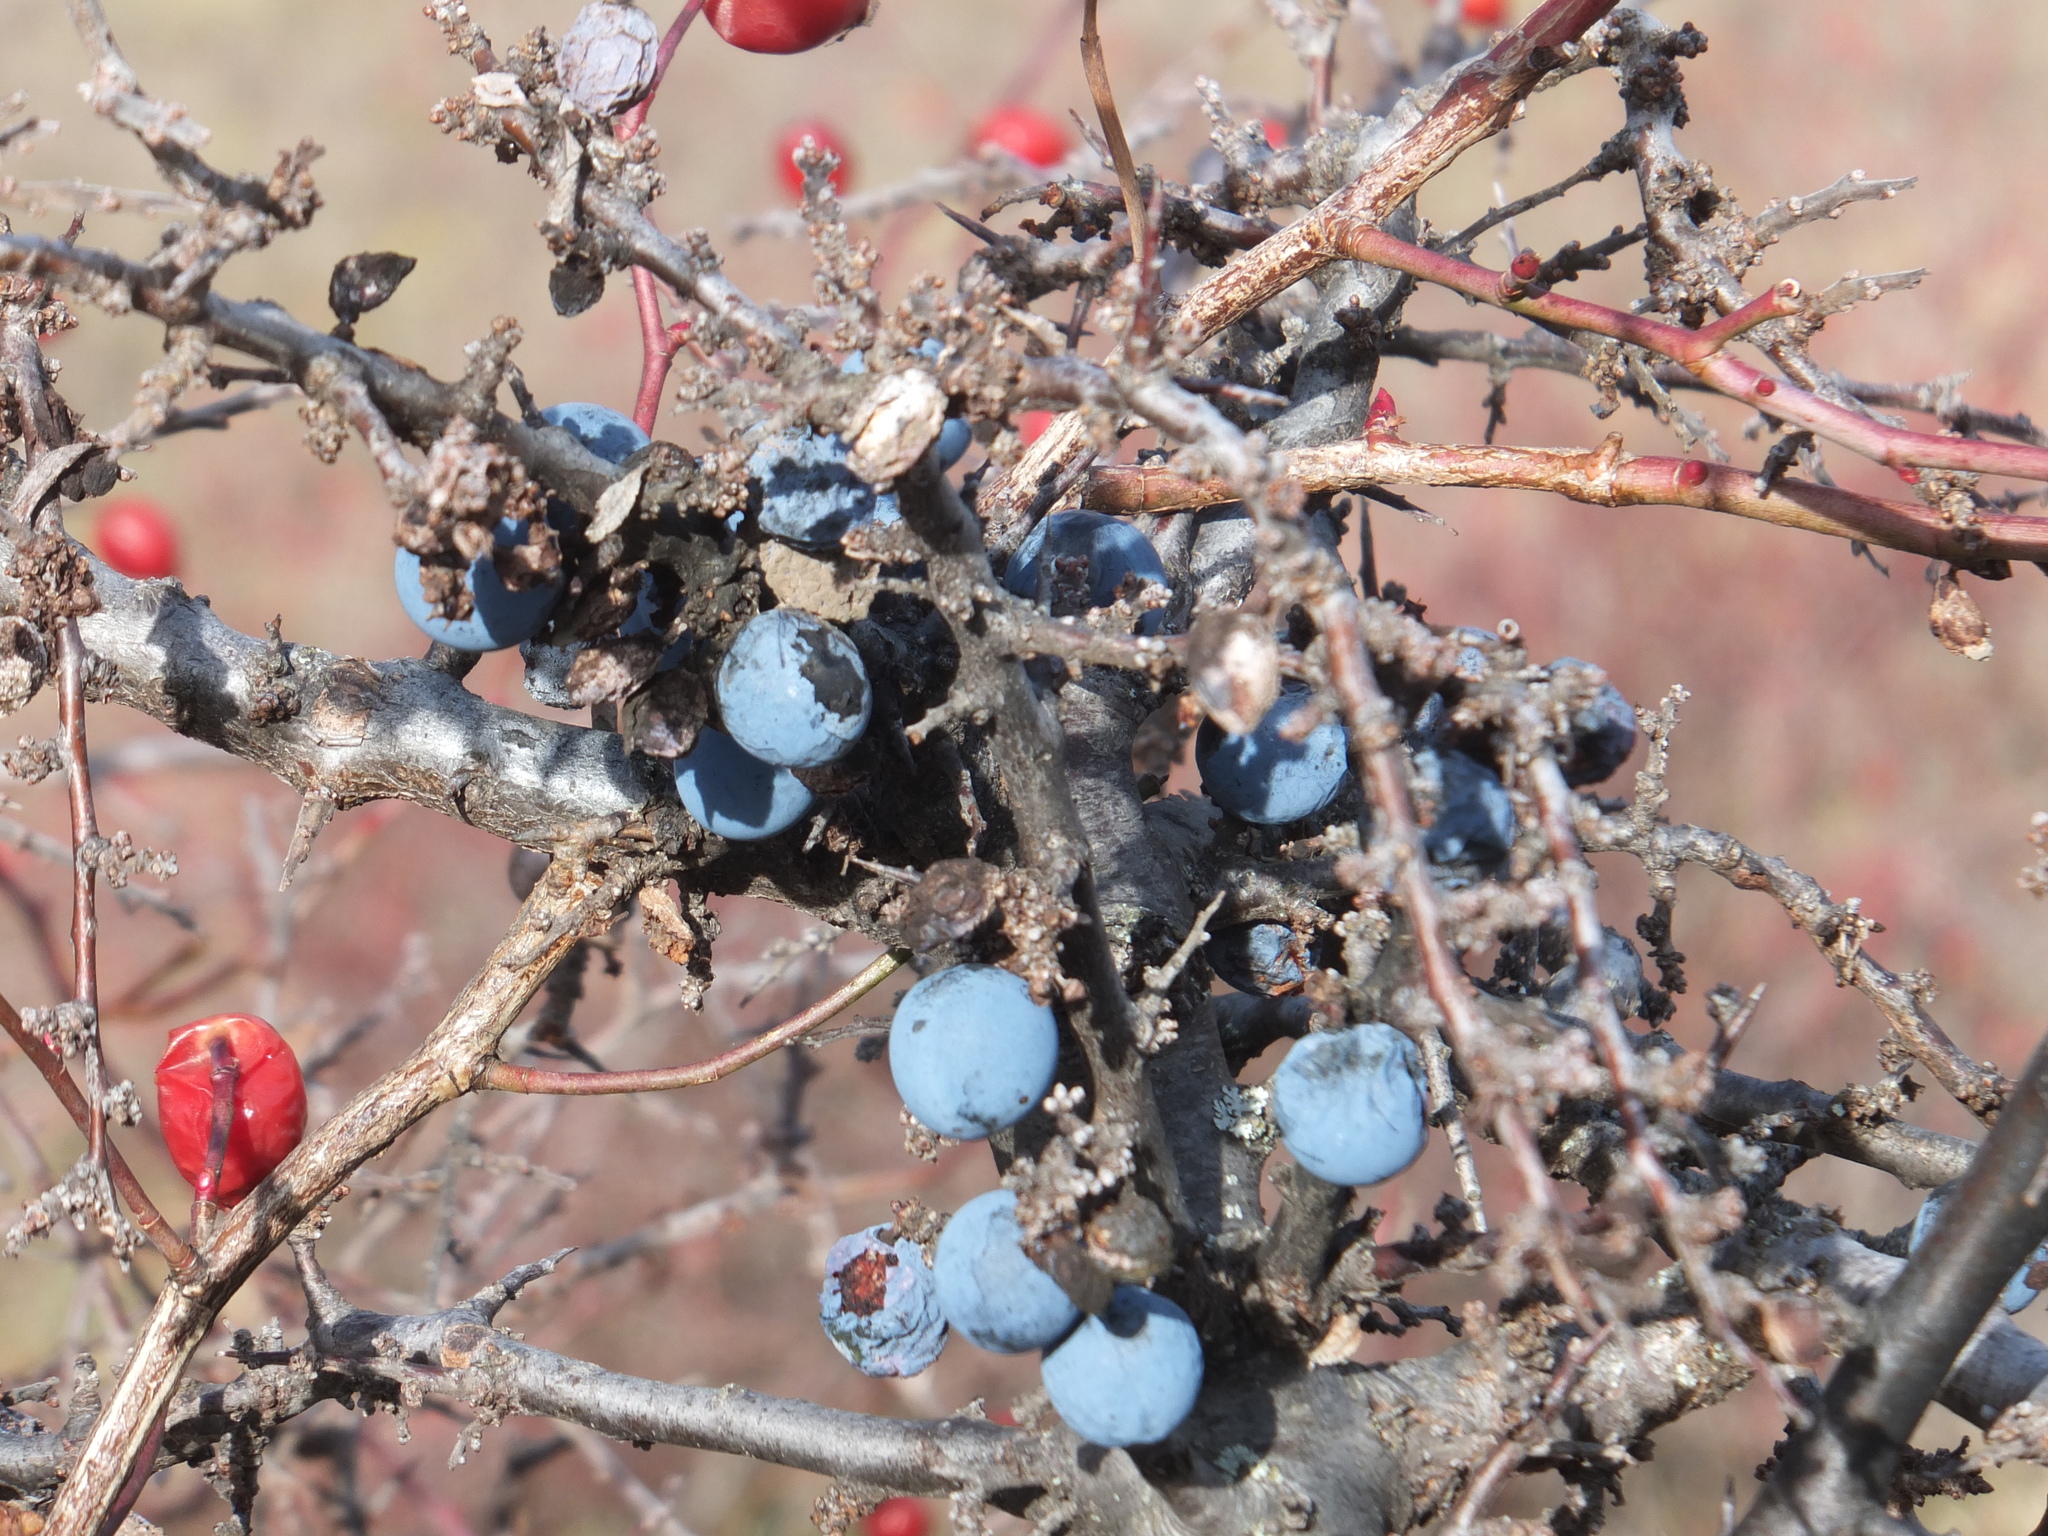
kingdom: Plantae
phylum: Tracheophyta
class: Magnoliopsida
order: Rosales
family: Rosaceae
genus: Prunus
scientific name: Prunus spinosa
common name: Blackthorn
